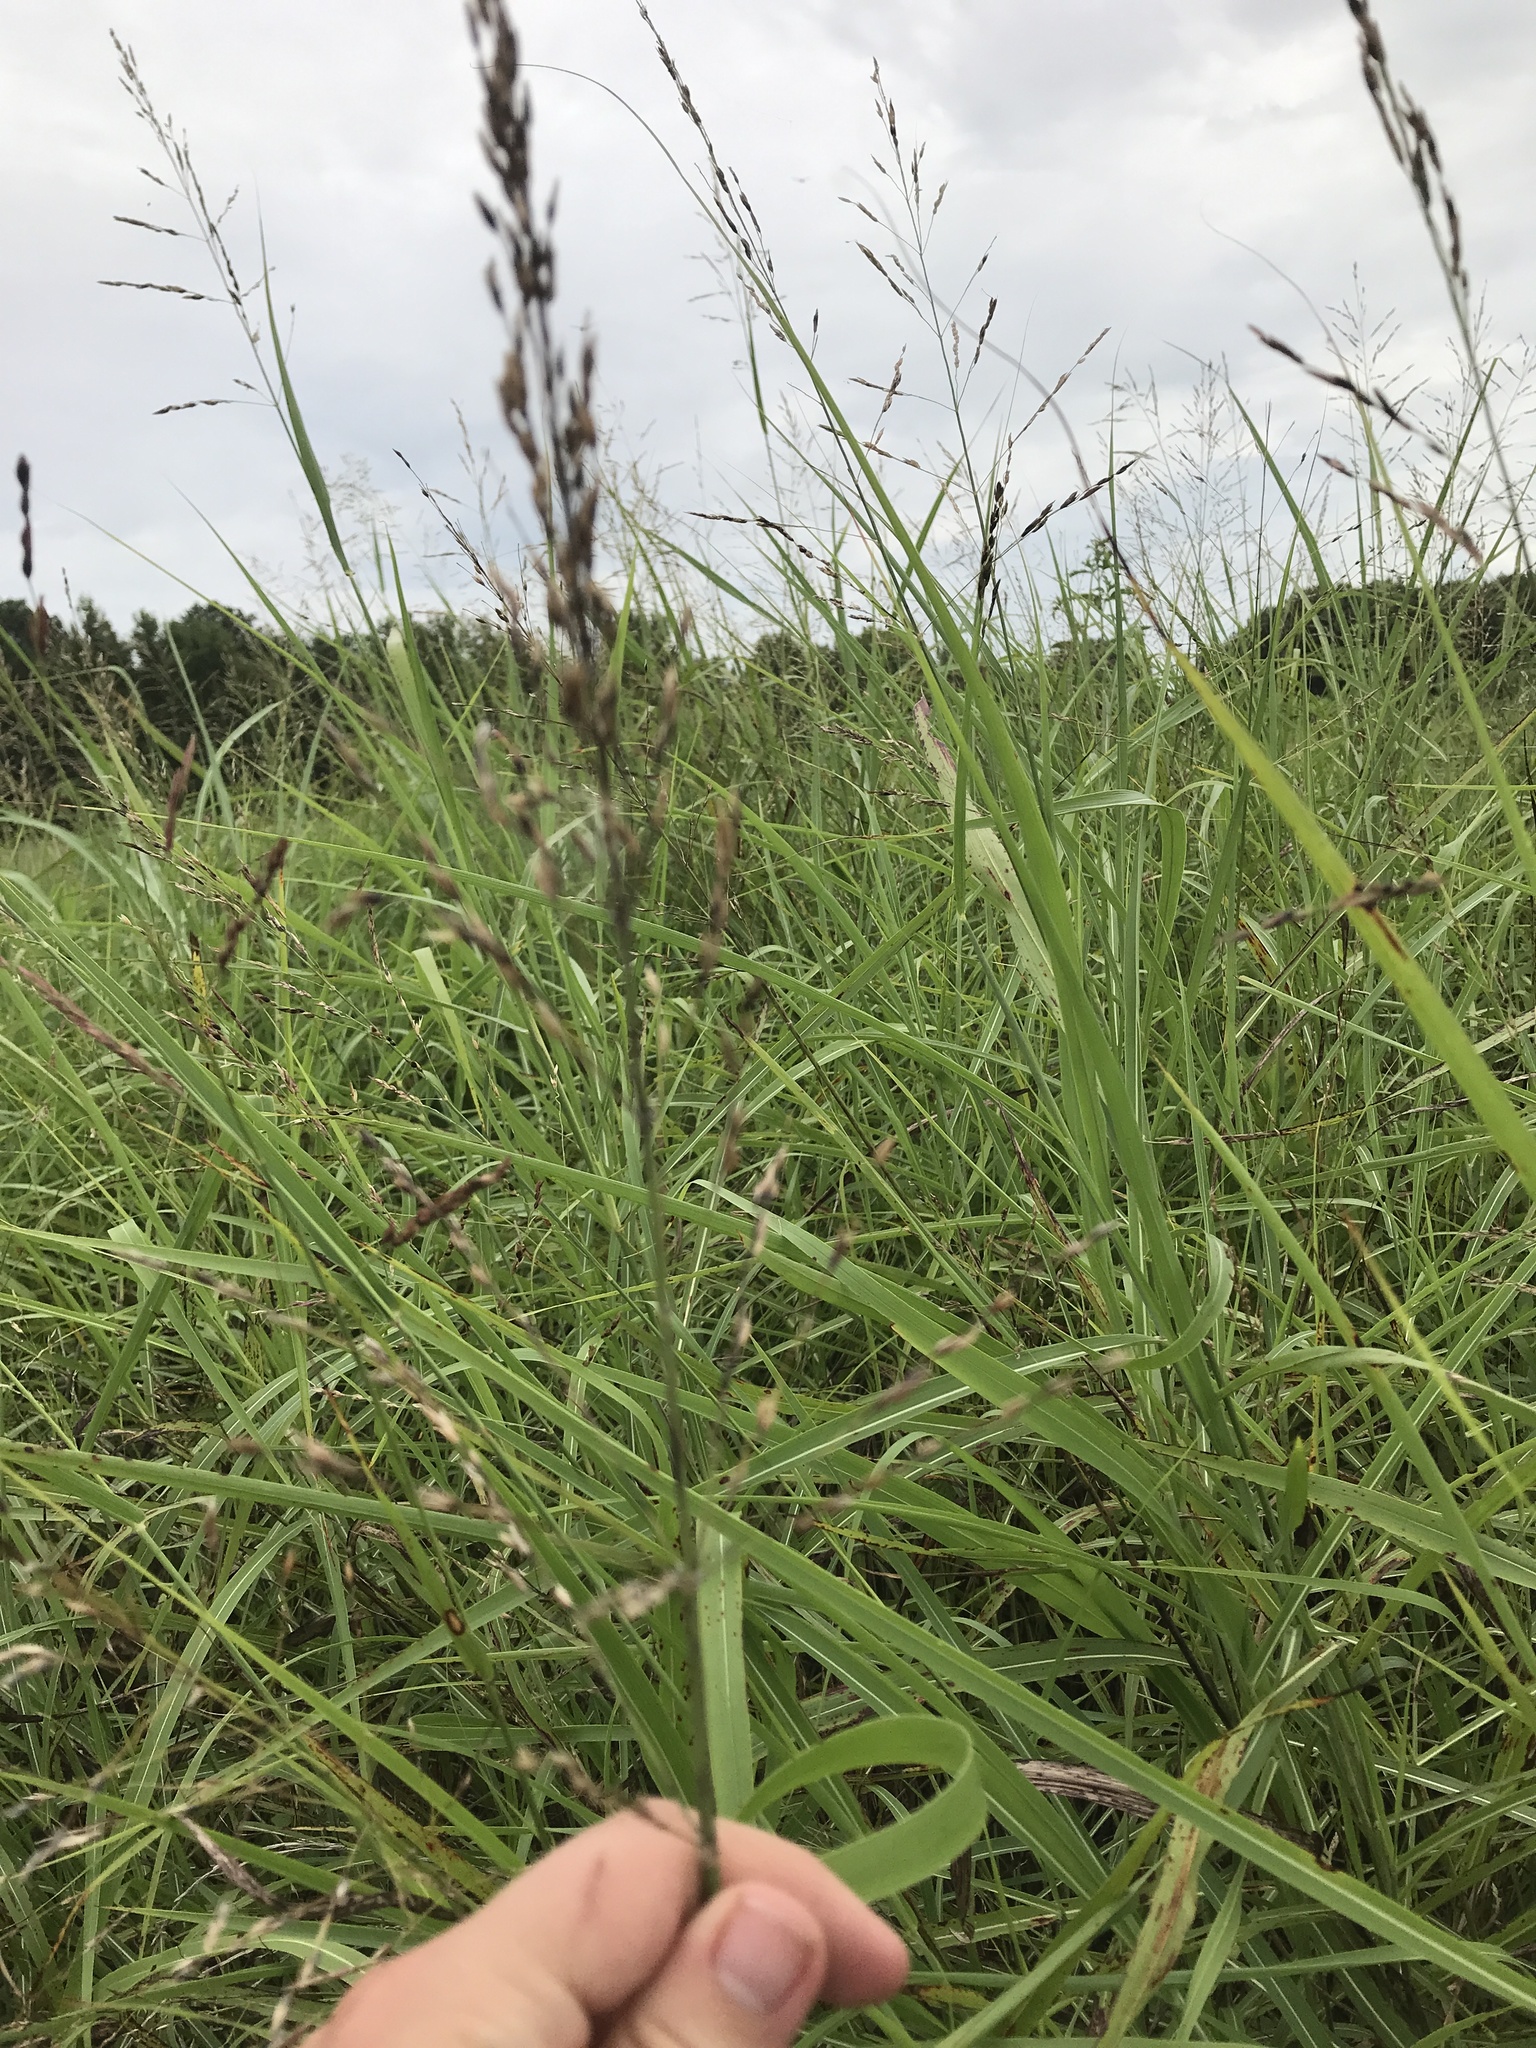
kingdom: Plantae
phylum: Tracheophyta
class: Liliopsida
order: Poales
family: Poaceae
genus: Sorghum
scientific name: Sorghum halepense
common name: Johnson-grass
